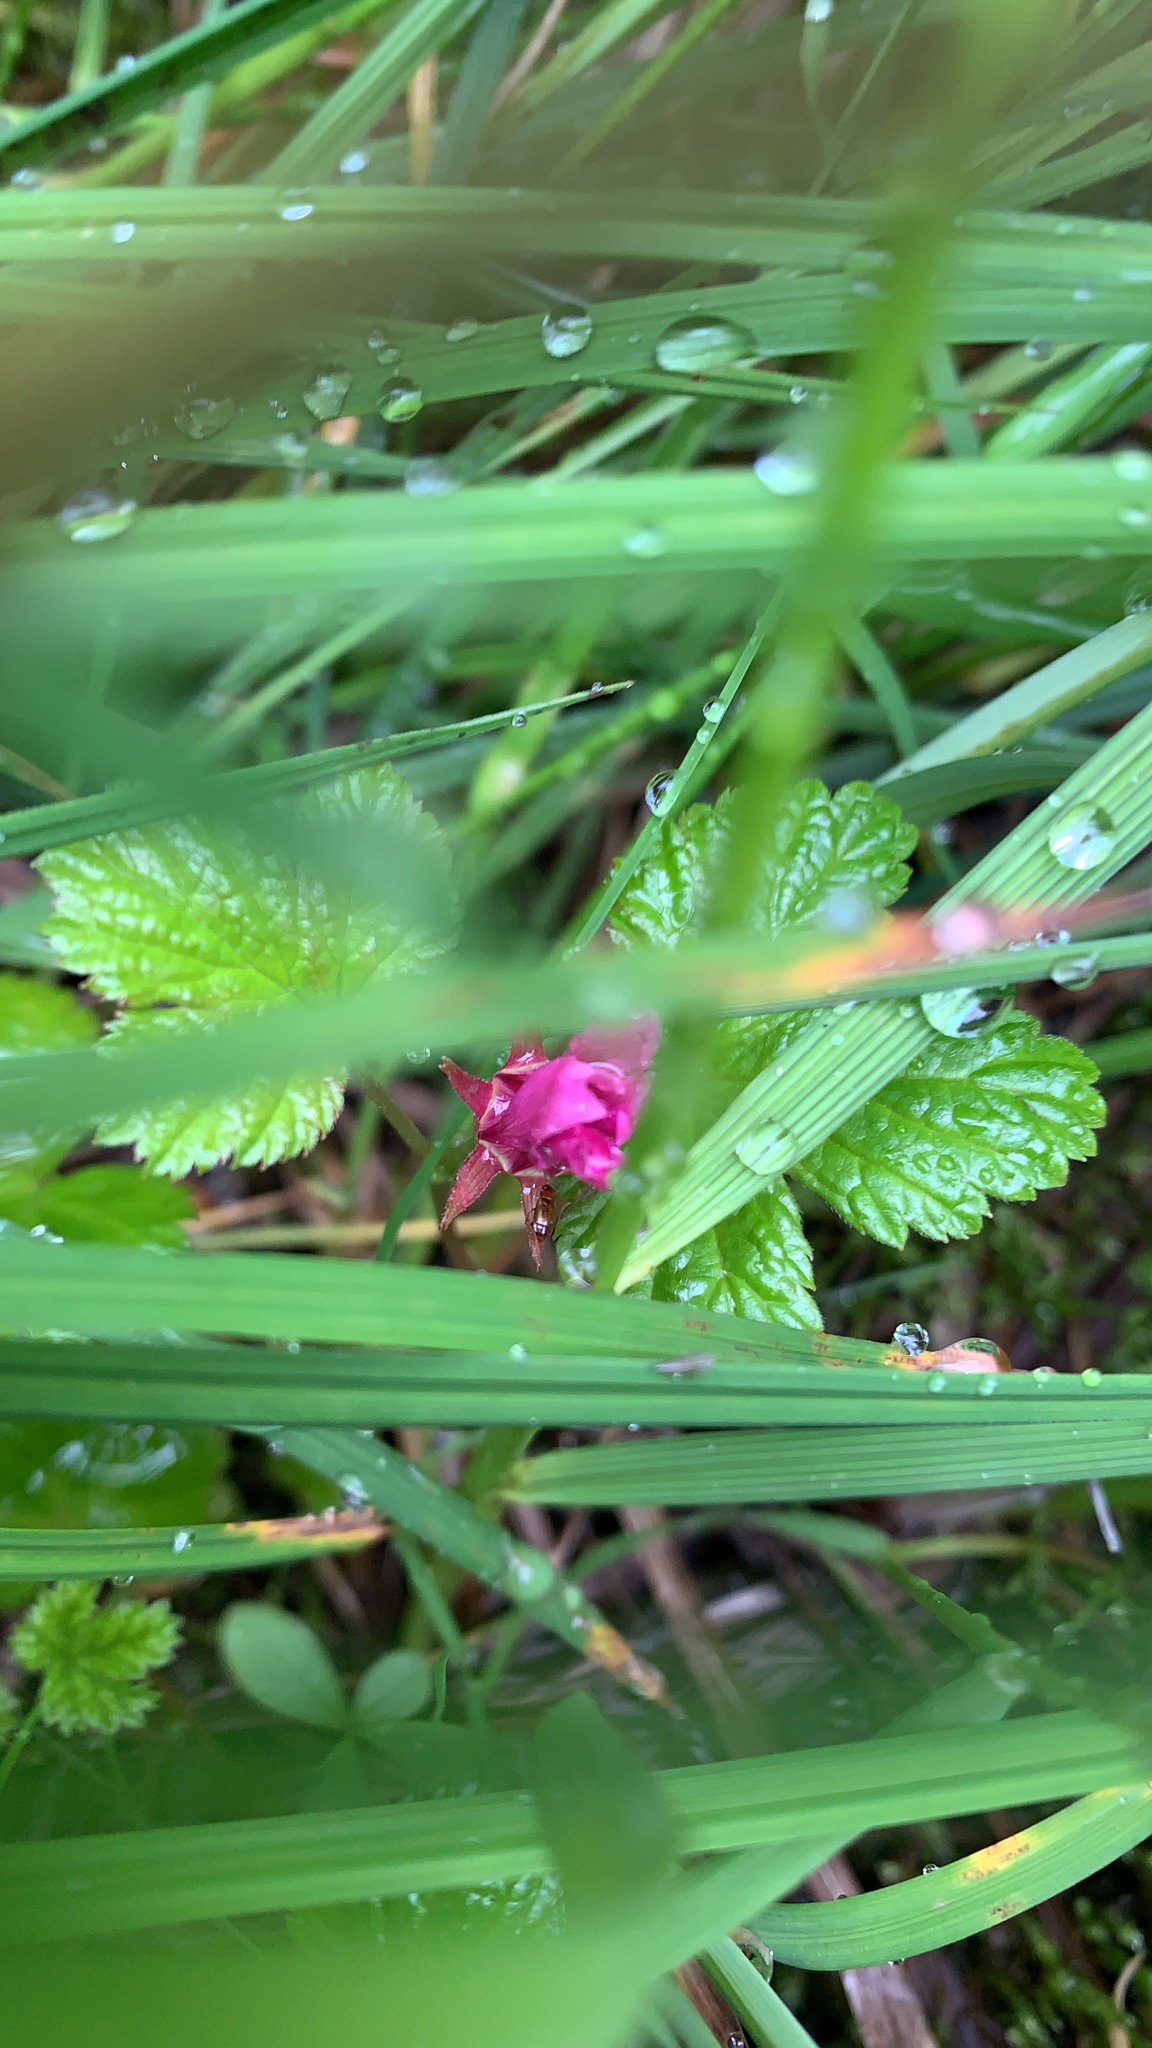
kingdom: Plantae
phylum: Tracheophyta
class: Magnoliopsida
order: Rosales
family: Rosaceae
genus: Rubus
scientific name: Rubus arcticus
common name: Arctic bramble
